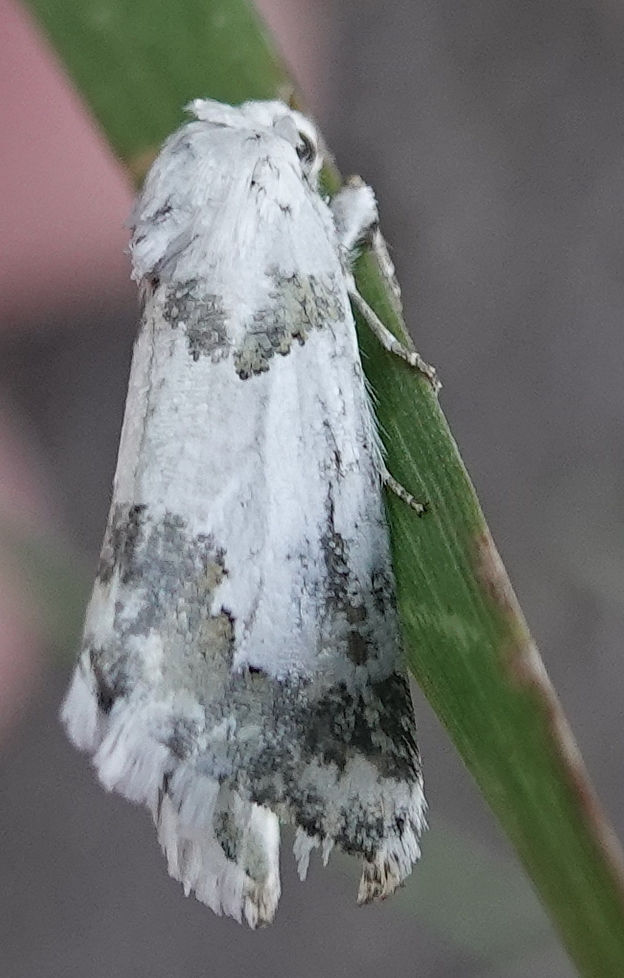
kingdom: Animalia
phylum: Arthropoda
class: Insecta
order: Lepidoptera
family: Noctuidae
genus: Schinia
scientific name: Schinia cumatilis
